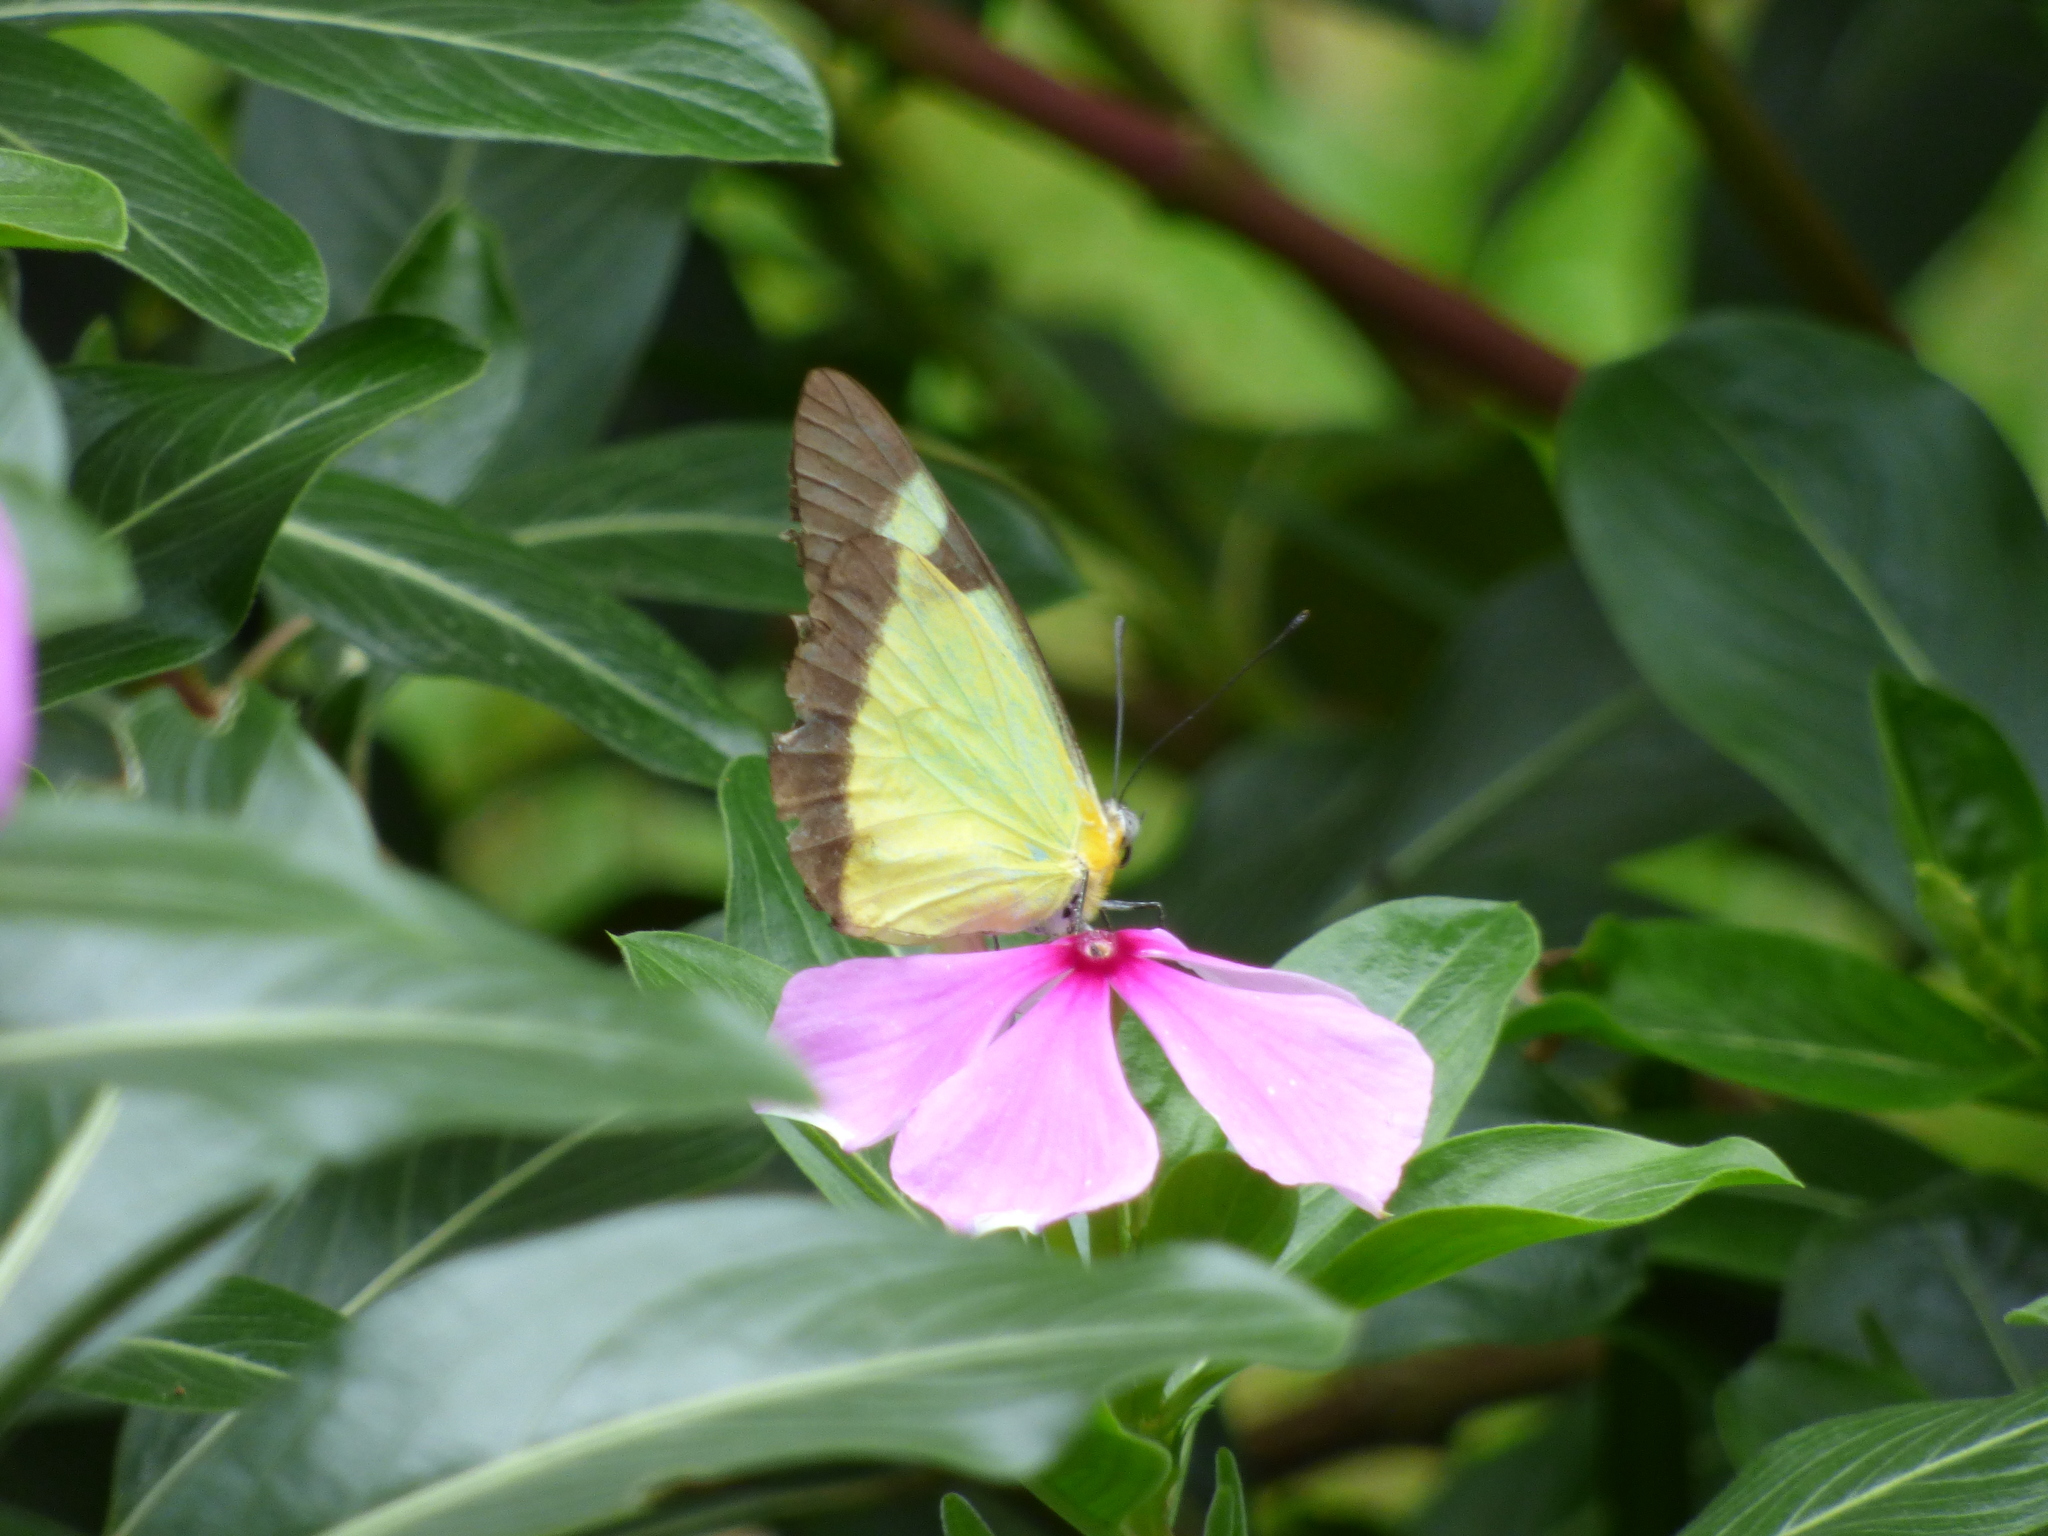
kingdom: Animalia
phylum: Arthropoda
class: Insecta
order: Lepidoptera
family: Pieridae
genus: Melete
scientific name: Melete lycimnia
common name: Common melwhite
